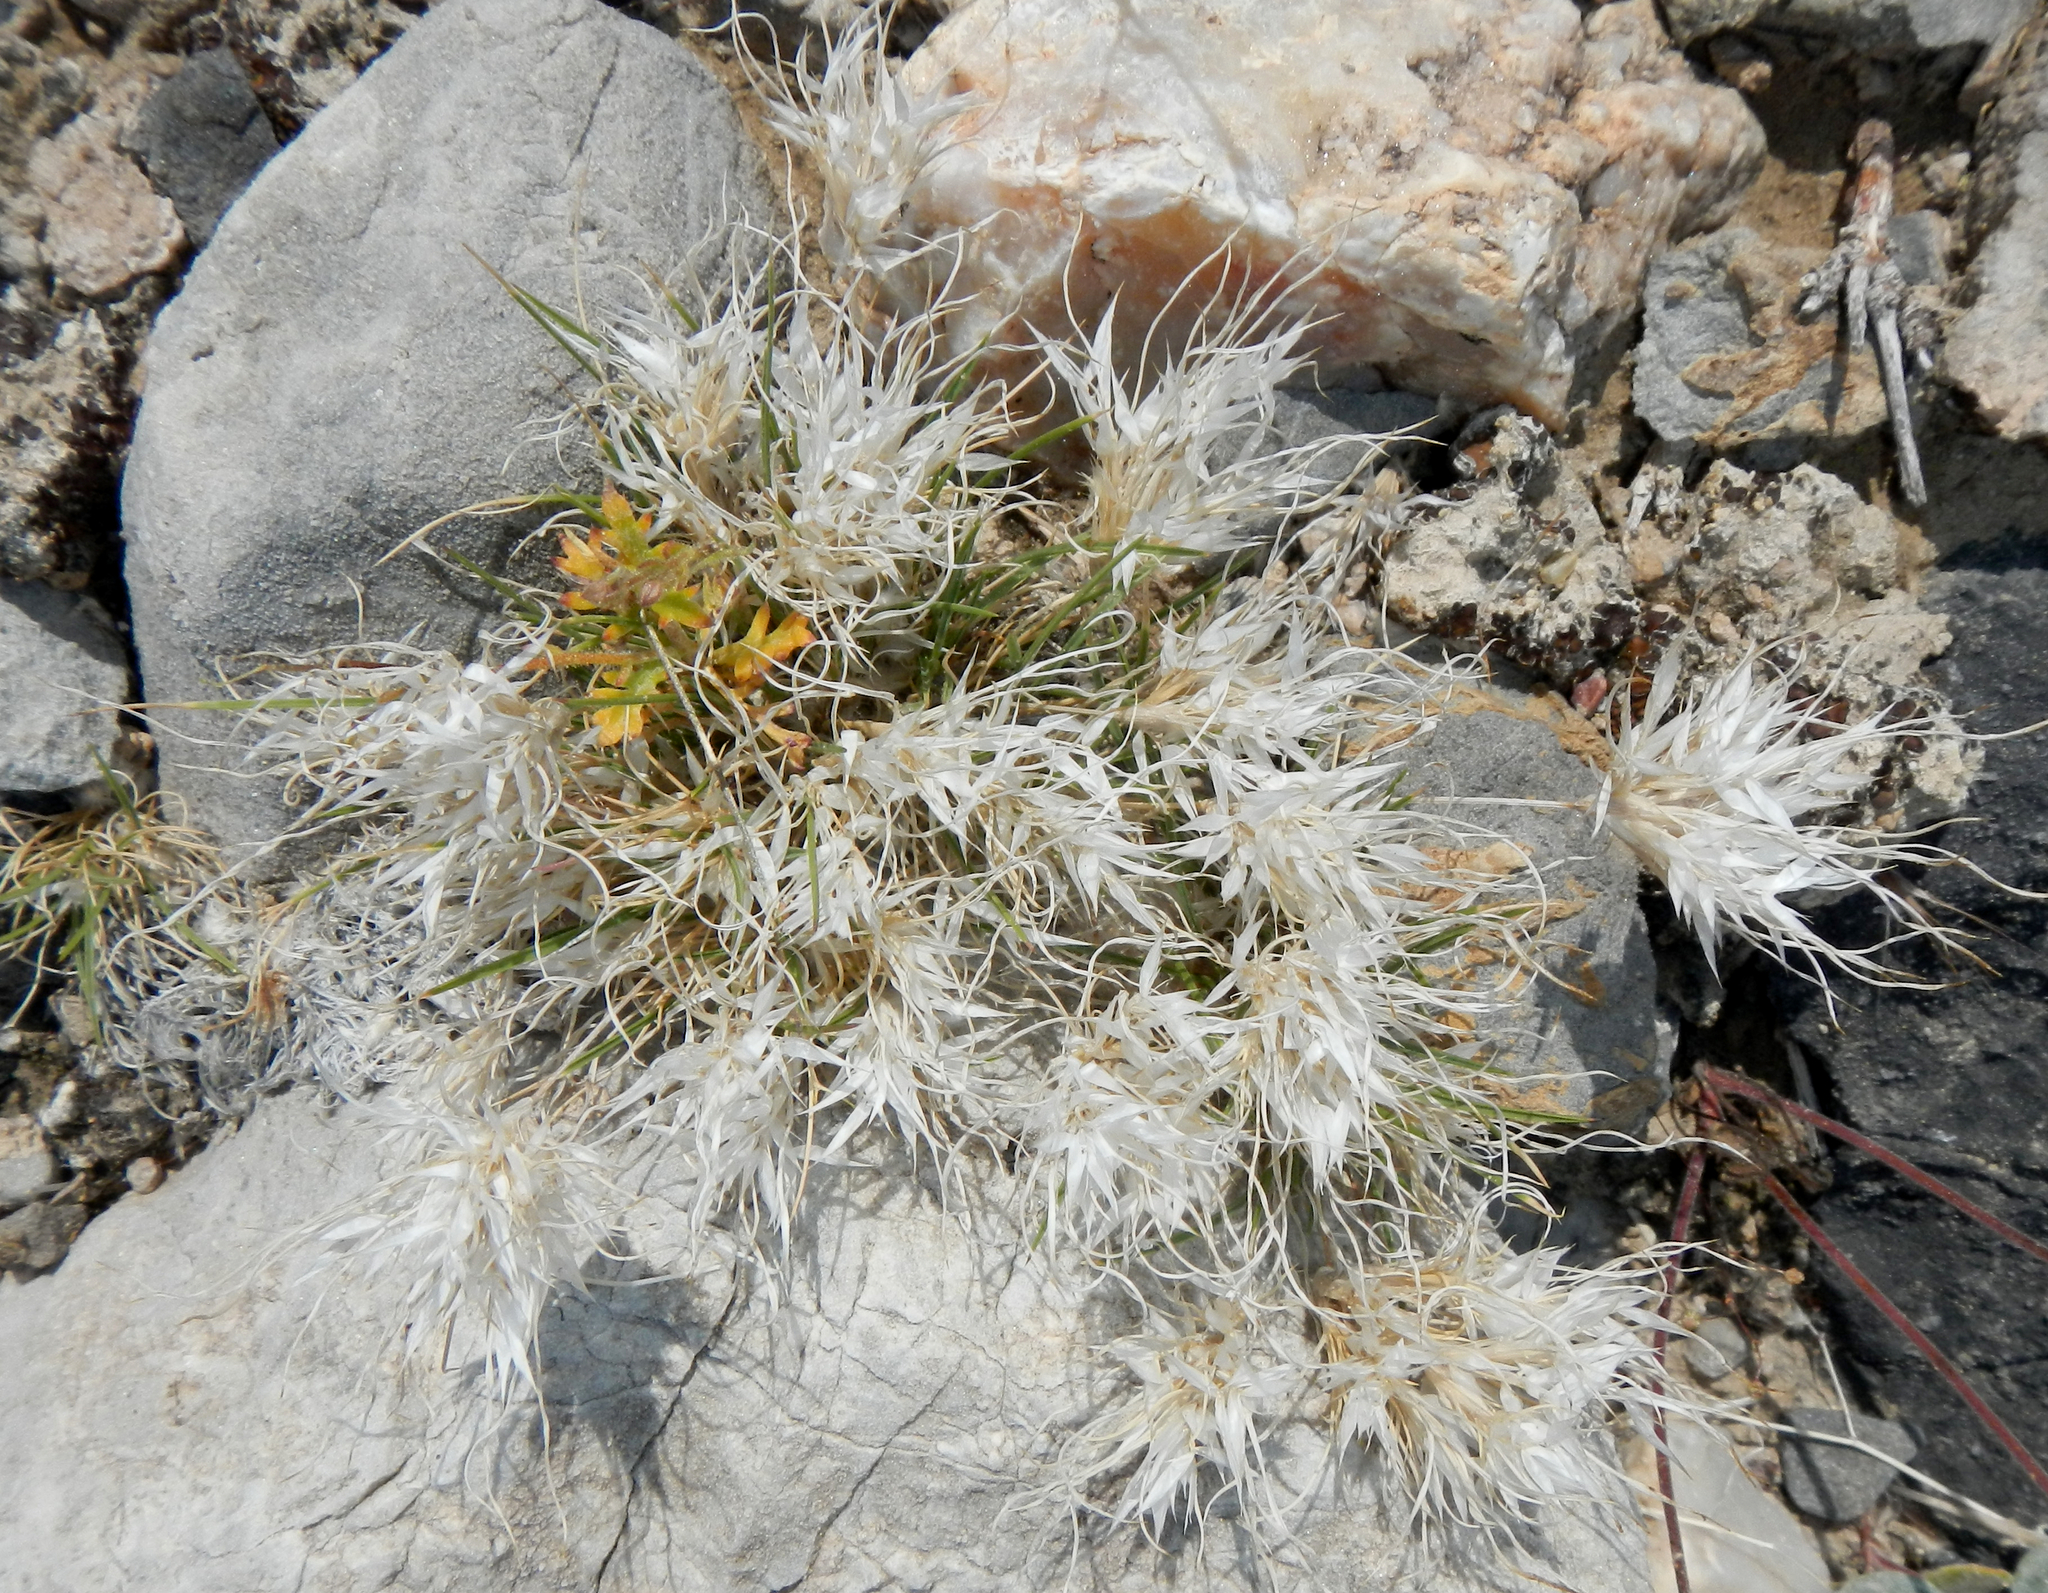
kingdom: Plantae
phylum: Tracheophyta
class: Liliopsida
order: Poales
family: Poaceae
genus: Dasyochloa
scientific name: Dasyochloa pulchella
